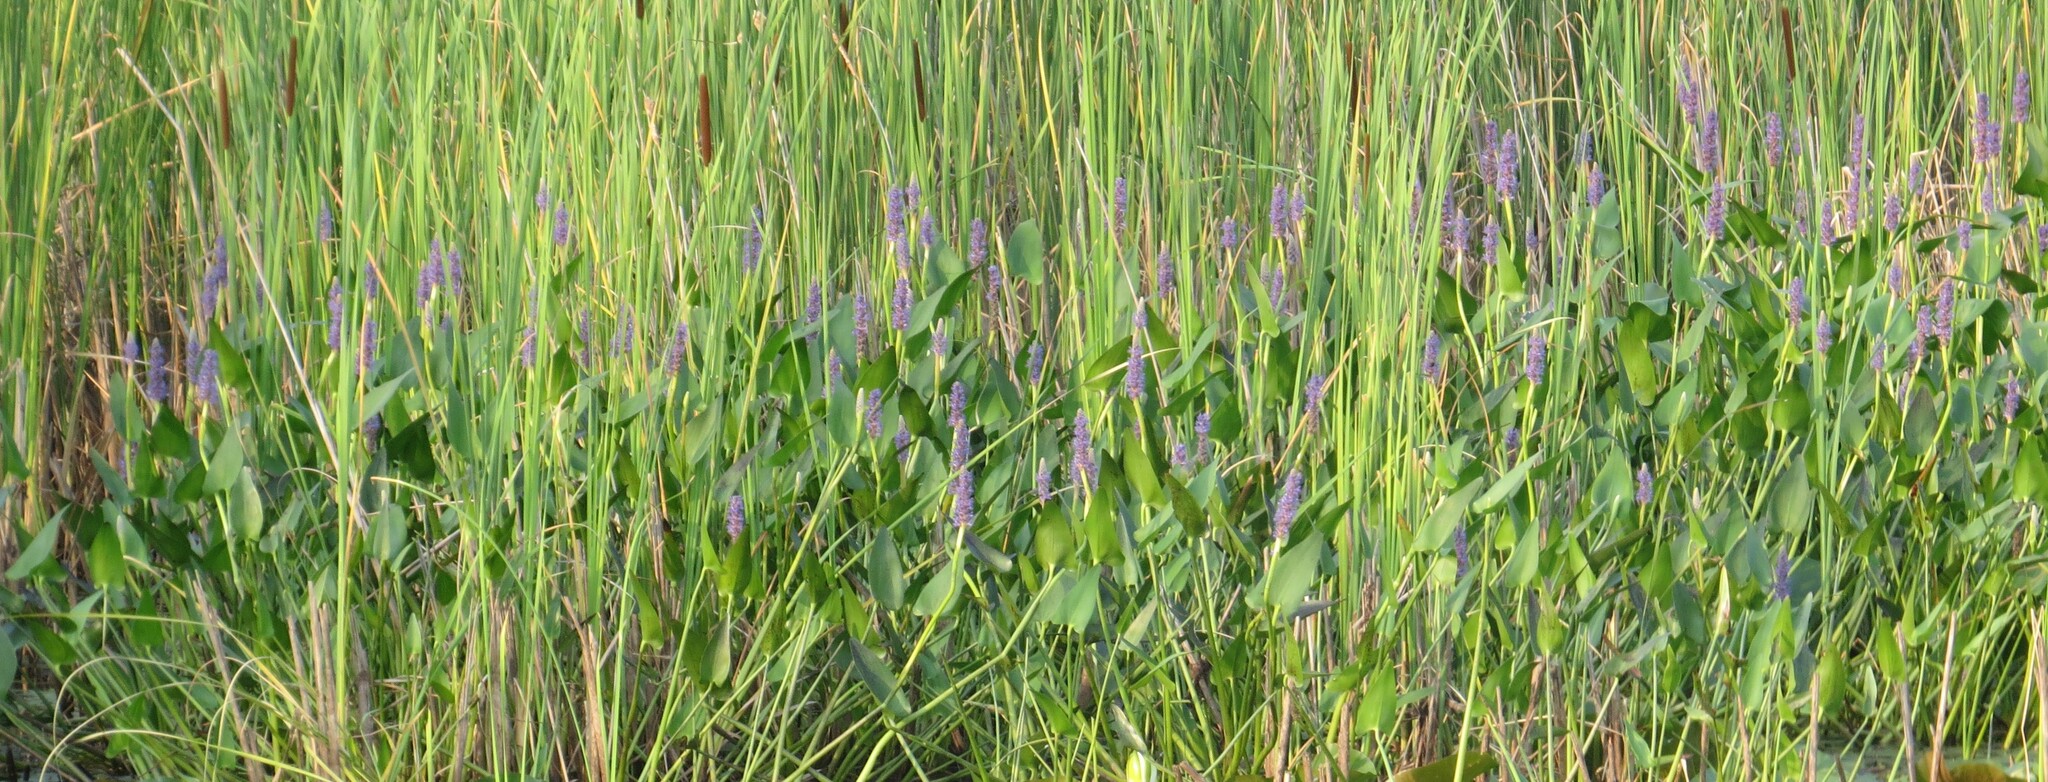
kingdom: Plantae
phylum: Tracheophyta
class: Liliopsida
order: Commelinales
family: Pontederiaceae
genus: Pontederia
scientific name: Pontederia cordata
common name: Pickerelweed
